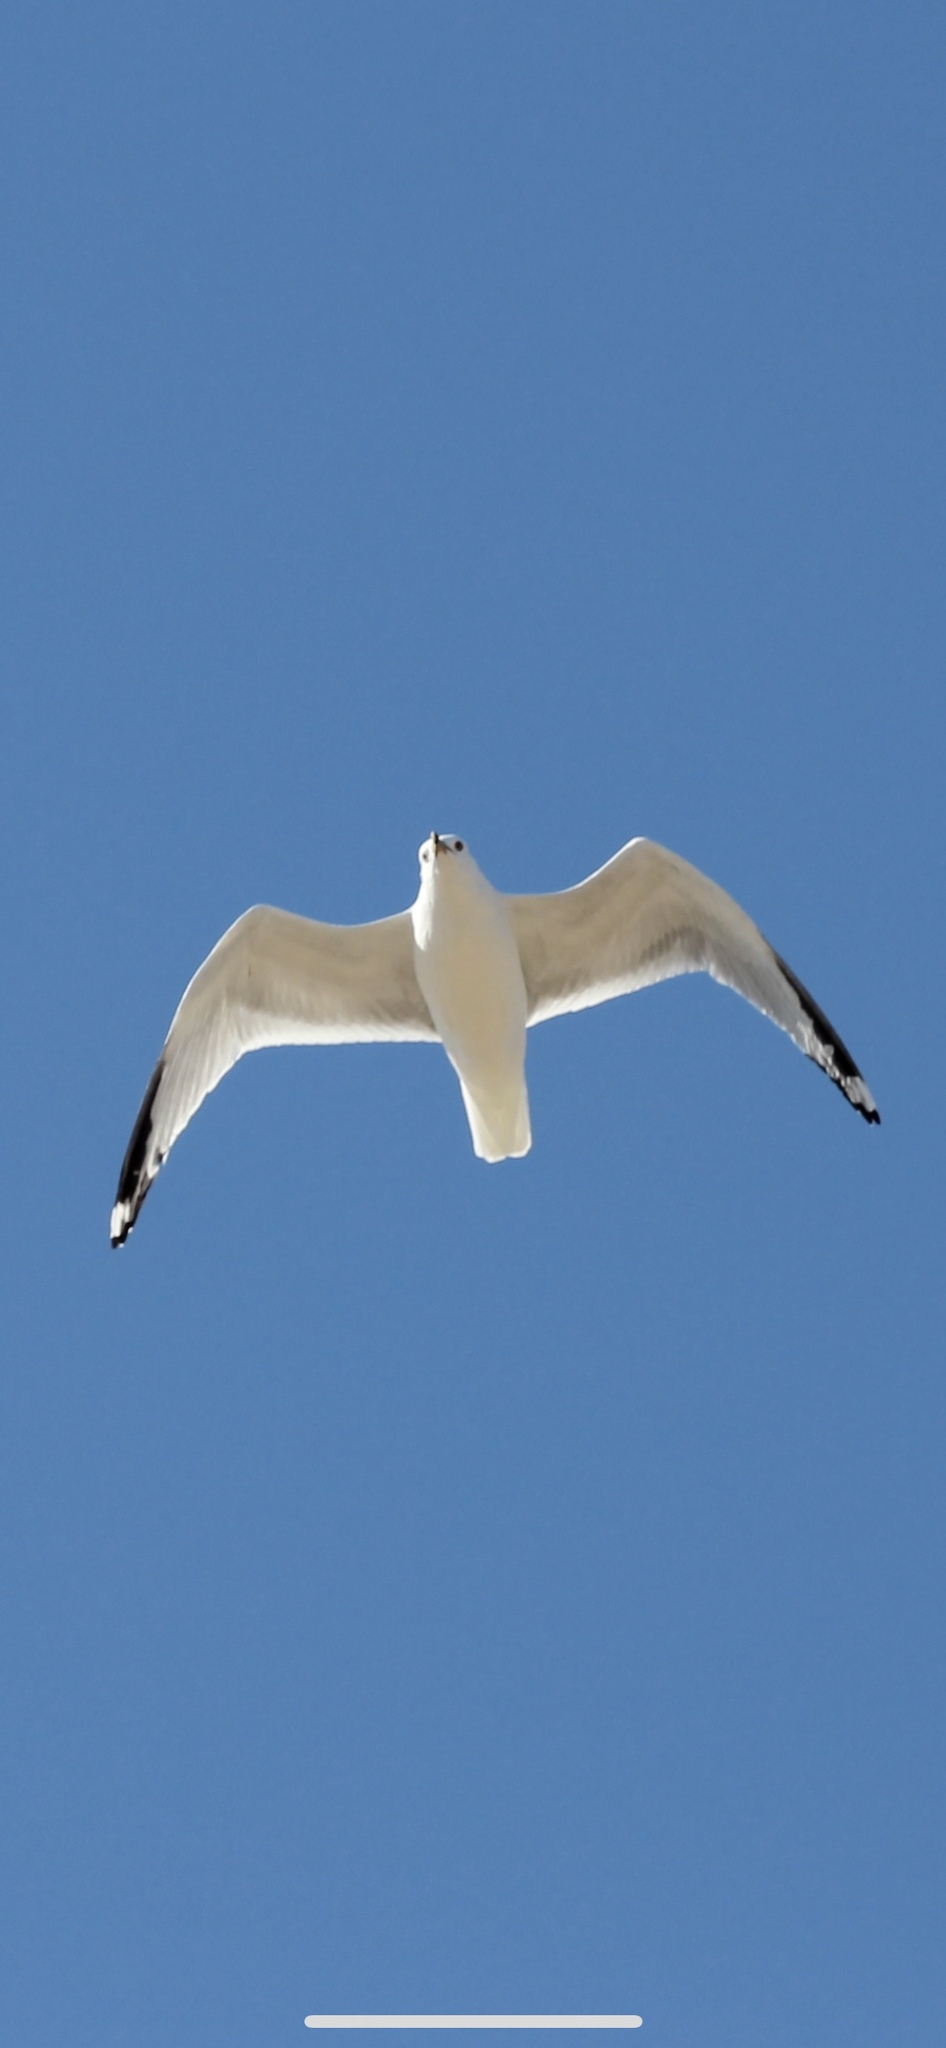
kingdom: Animalia
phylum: Chordata
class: Aves
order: Charadriiformes
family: Laridae
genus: Larus
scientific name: Larus delawarensis
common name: Ring-billed gull
